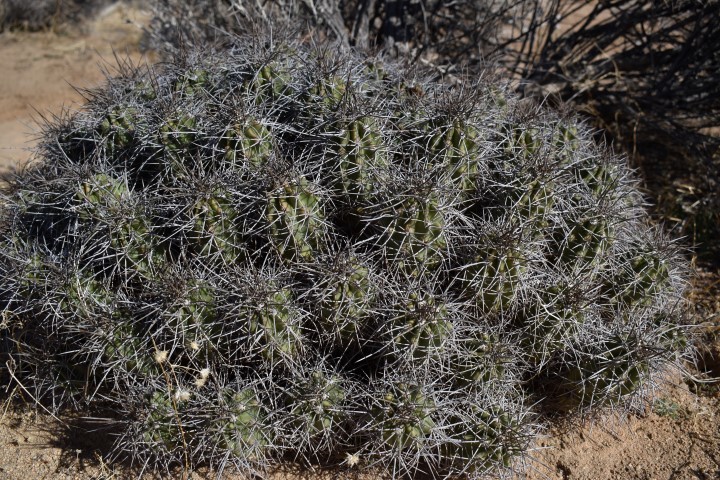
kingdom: Plantae
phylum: Tracheophyta
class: Magnoliopsida
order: Caryophyllales
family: Cactaceae
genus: Echinocereus
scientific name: Echinocereus triglochidiatus
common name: Claretcup hedgehog
